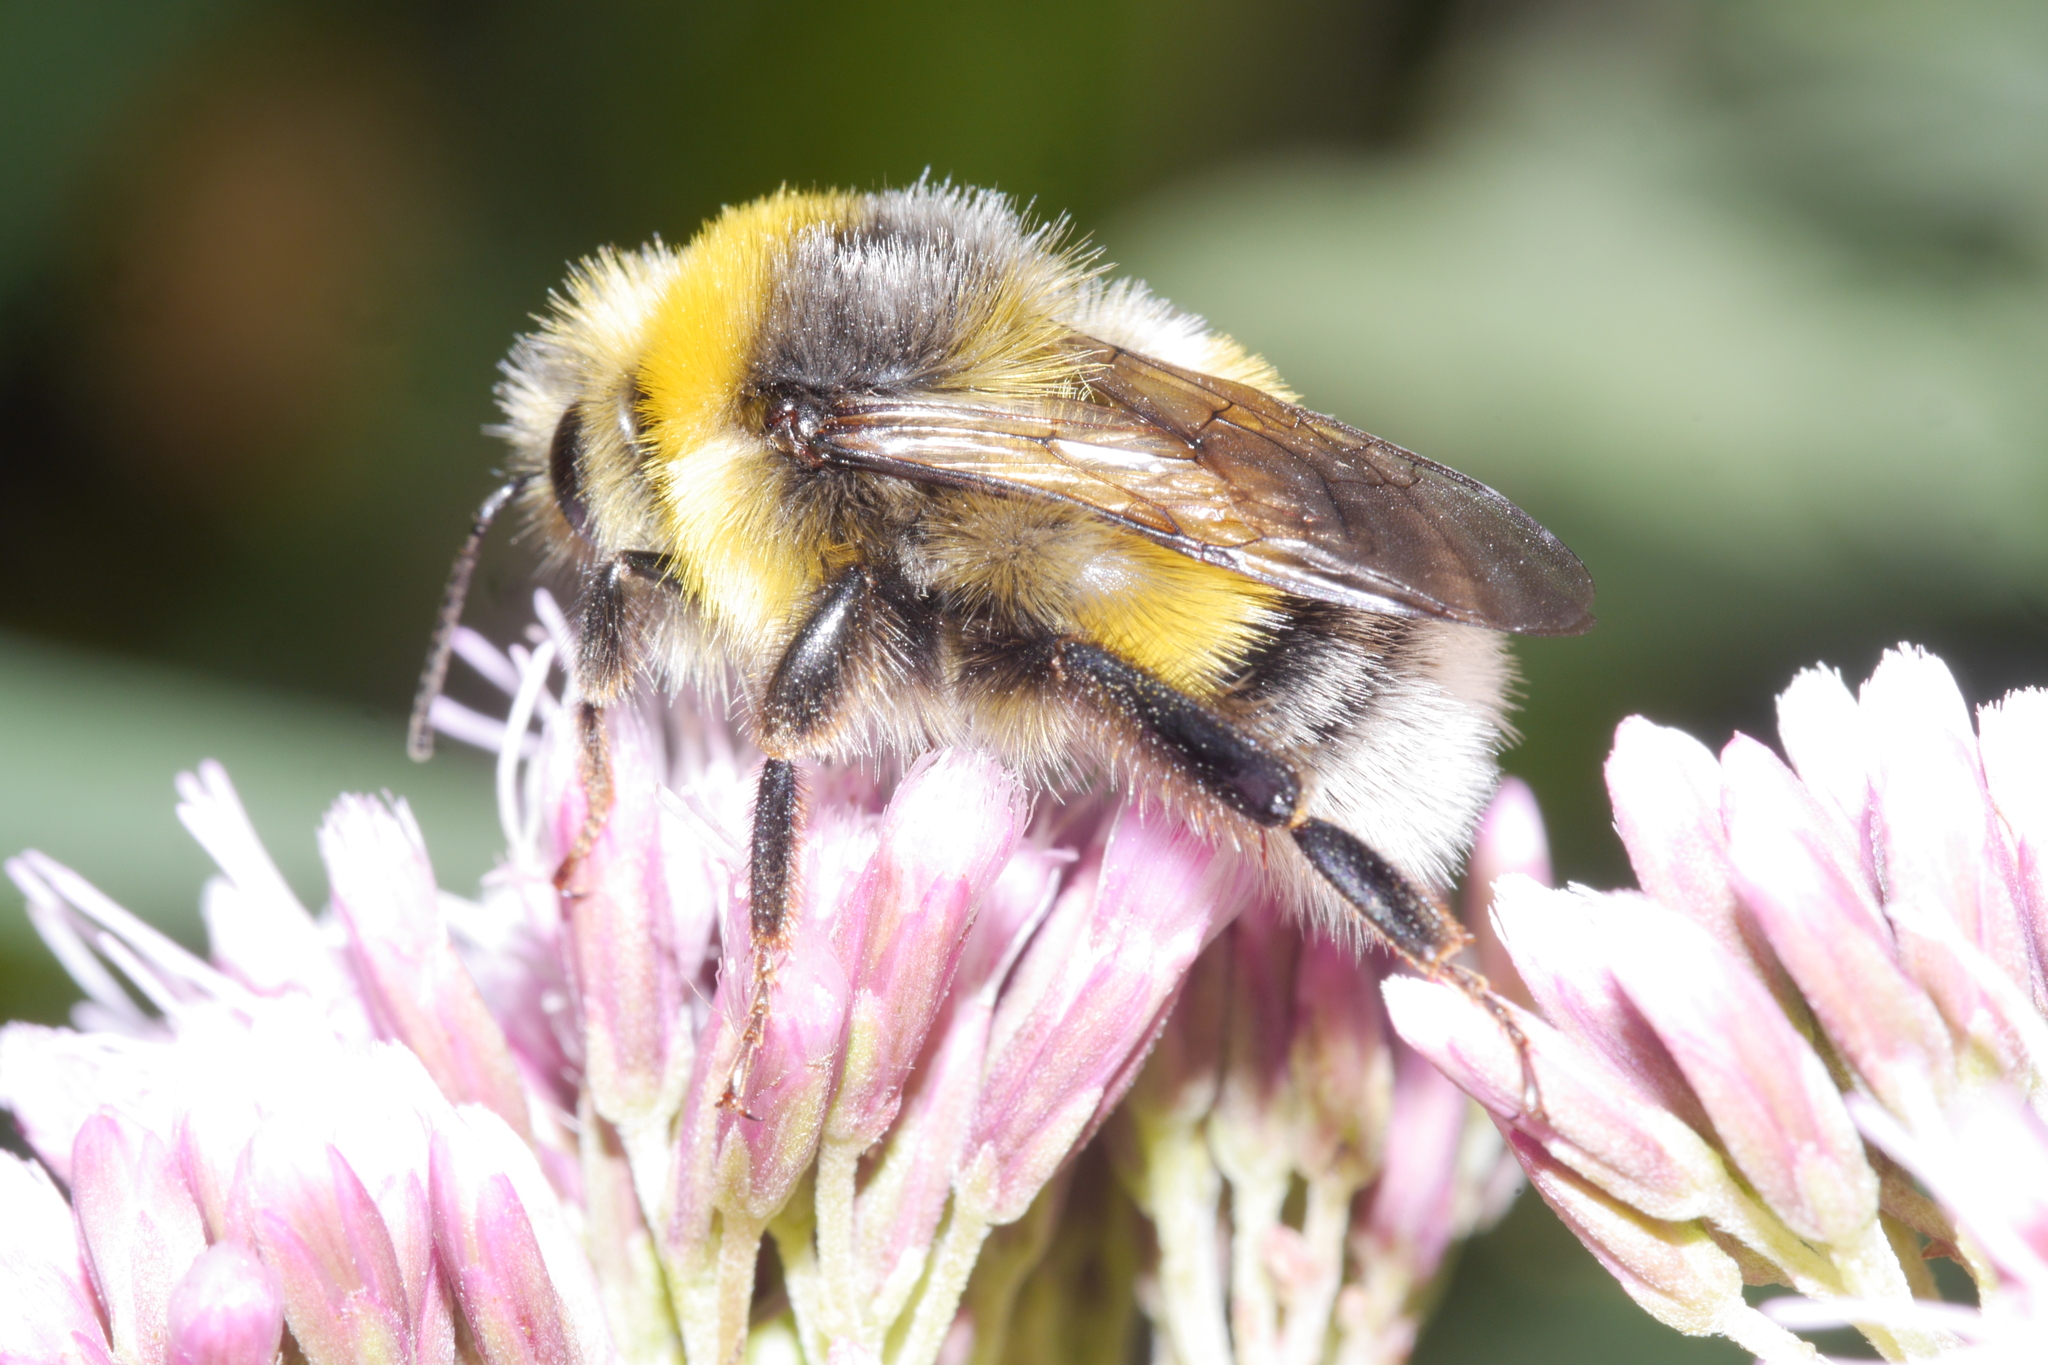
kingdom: Animalia
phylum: Arthropoda
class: Insecta
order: Hymenoptera
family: Apidae
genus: Bombus
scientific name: Bombus lucorum
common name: White-tailed bumblebee
